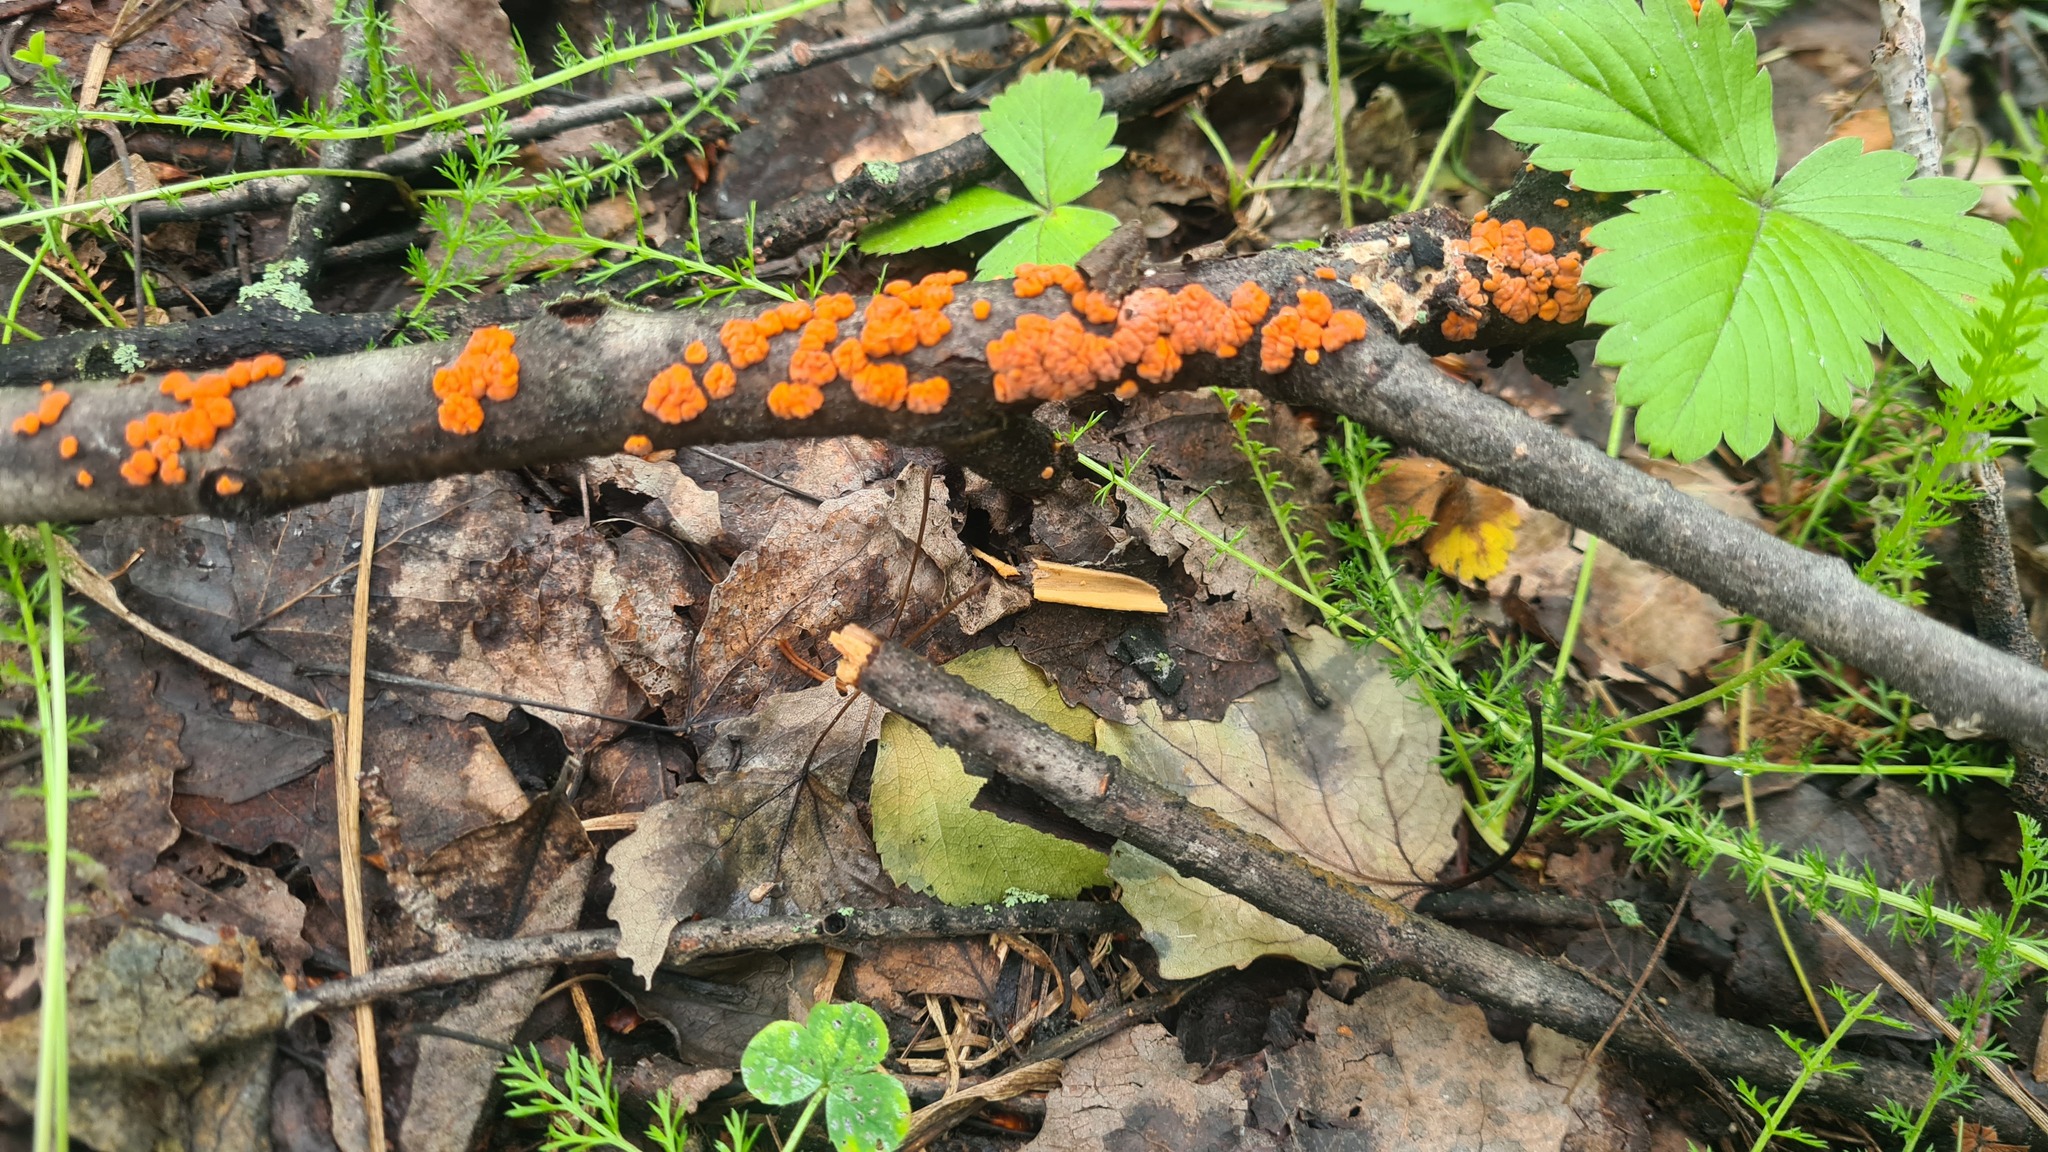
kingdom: Fungi
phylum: Basidiomycota
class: Agaricomycetes
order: Russulales
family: Peniophoraceae
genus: Peniophora
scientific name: Peniophora rufa
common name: Red tree brain fungus
